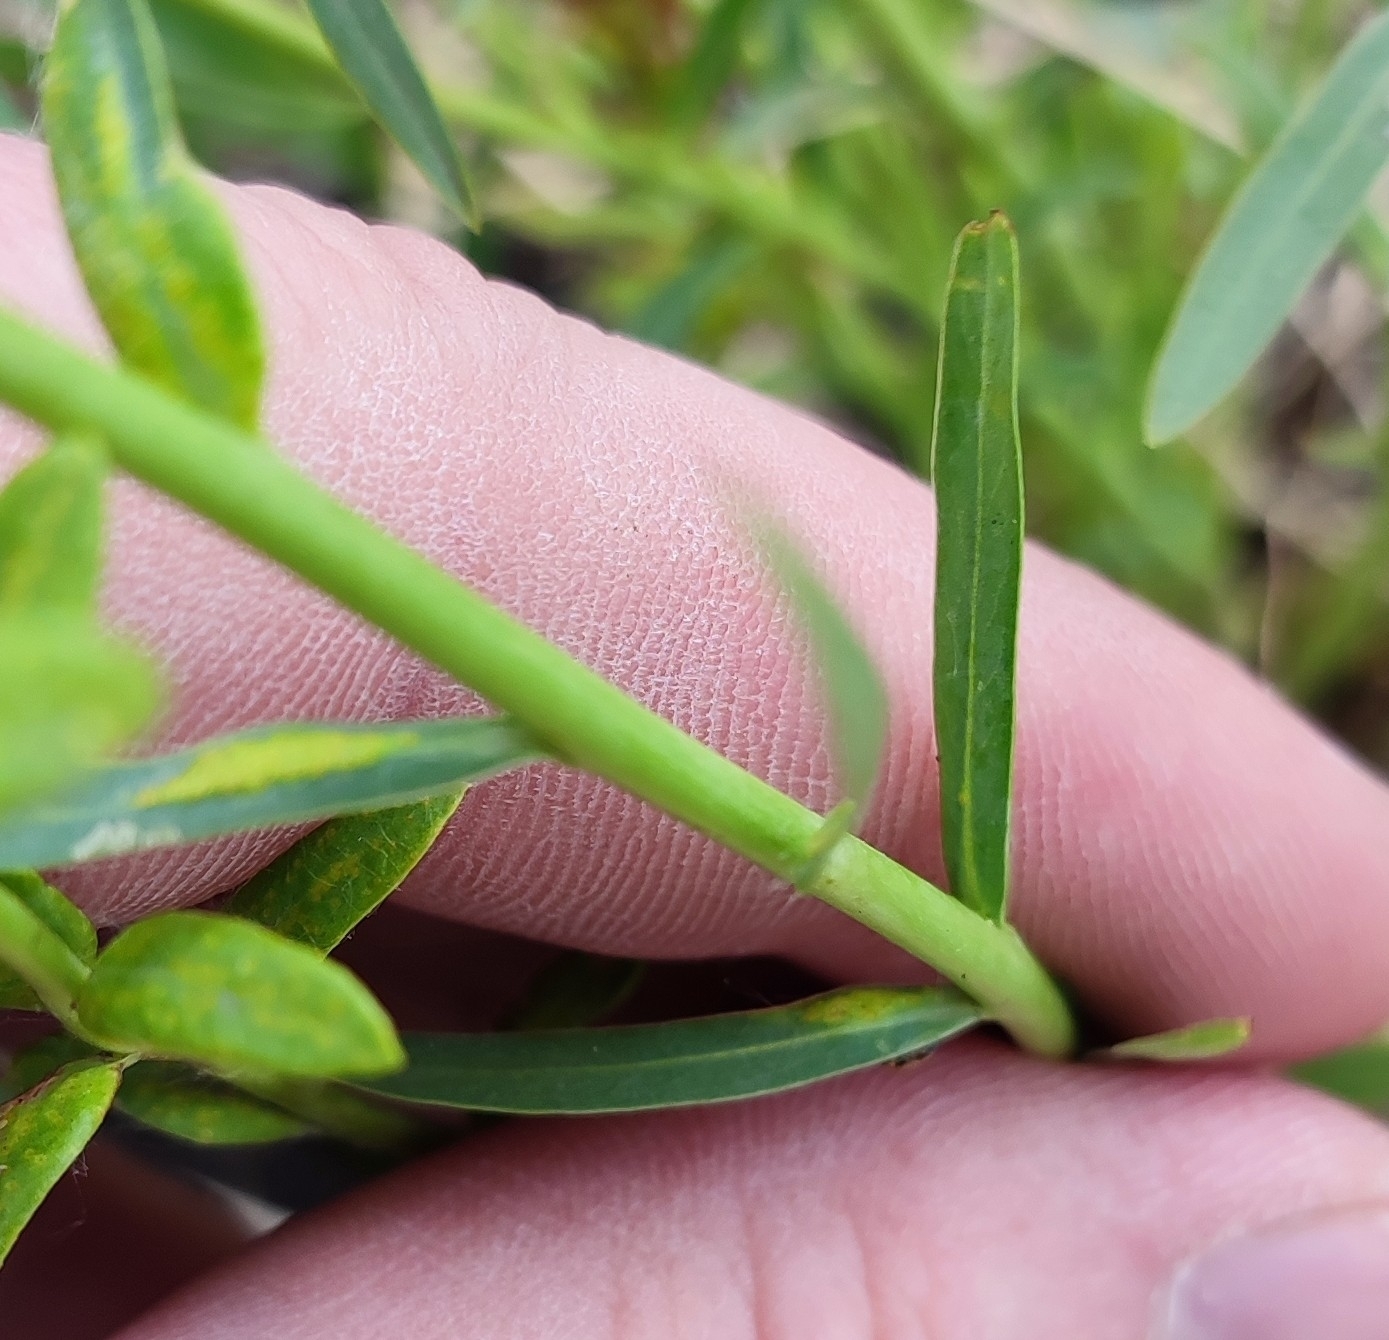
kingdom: Plantae
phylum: Tracheophyta
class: Magnoliopsida
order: Malpighiales
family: Euphorbiaceae
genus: Euphorbia
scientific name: Euphorbia virgata
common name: Leafy spurge
